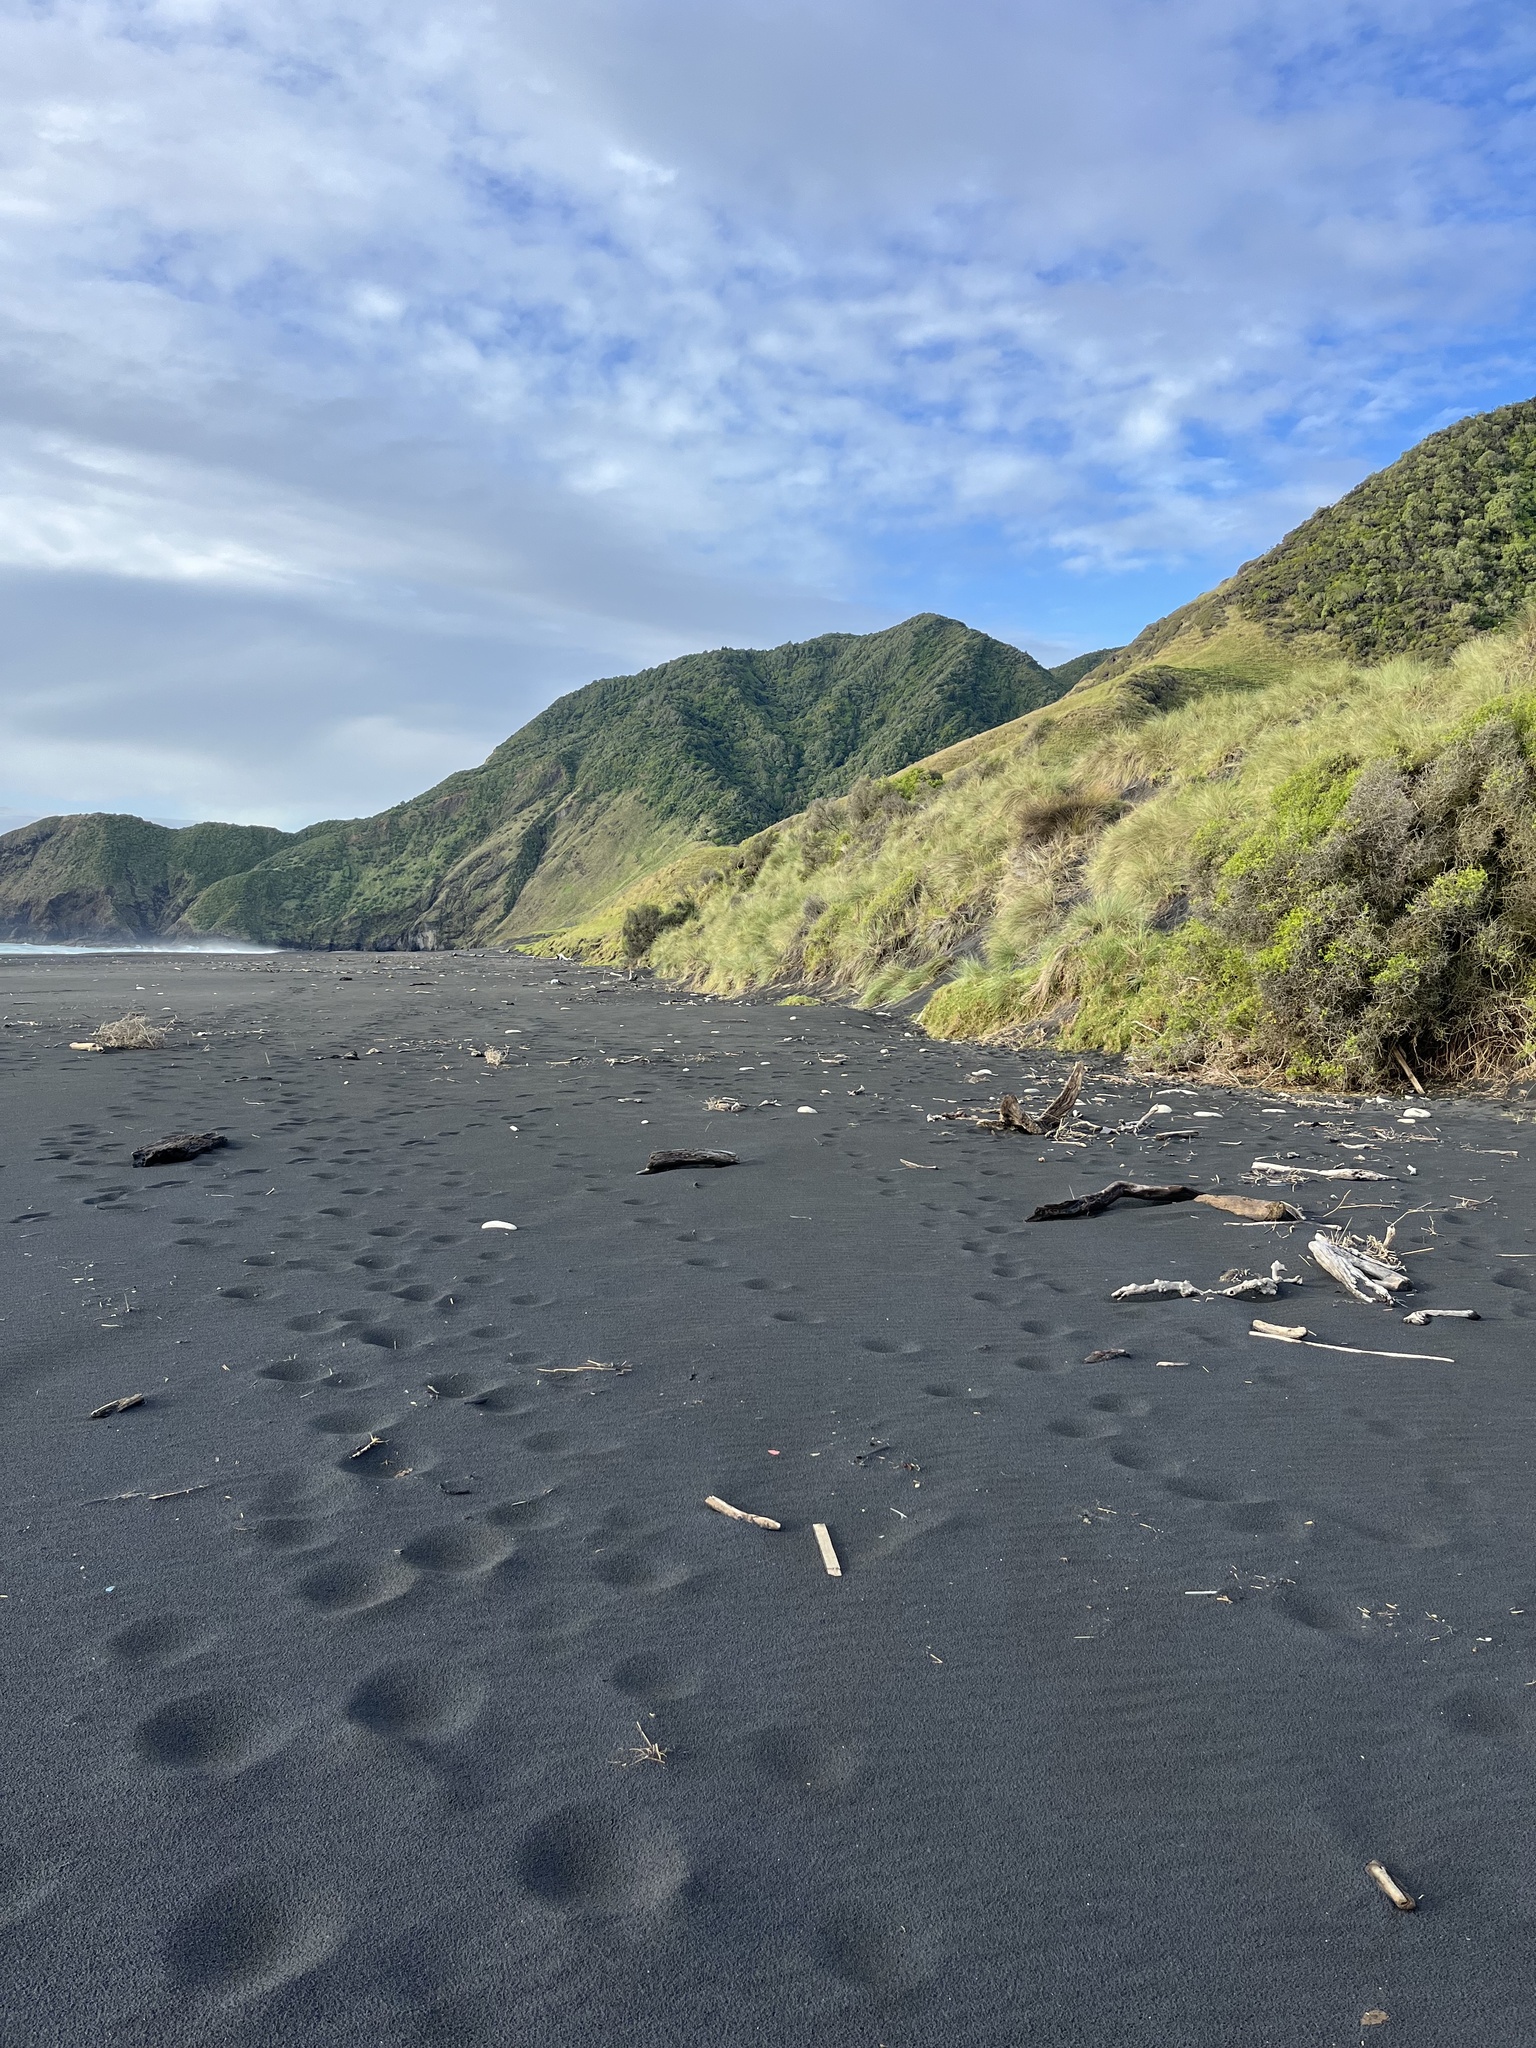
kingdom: Plantae
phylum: Tracheophyta
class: Liliopsida
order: Poales
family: Poaceae
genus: Calamagrostis
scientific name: Calamagrostis arenaria
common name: European beachgrass
